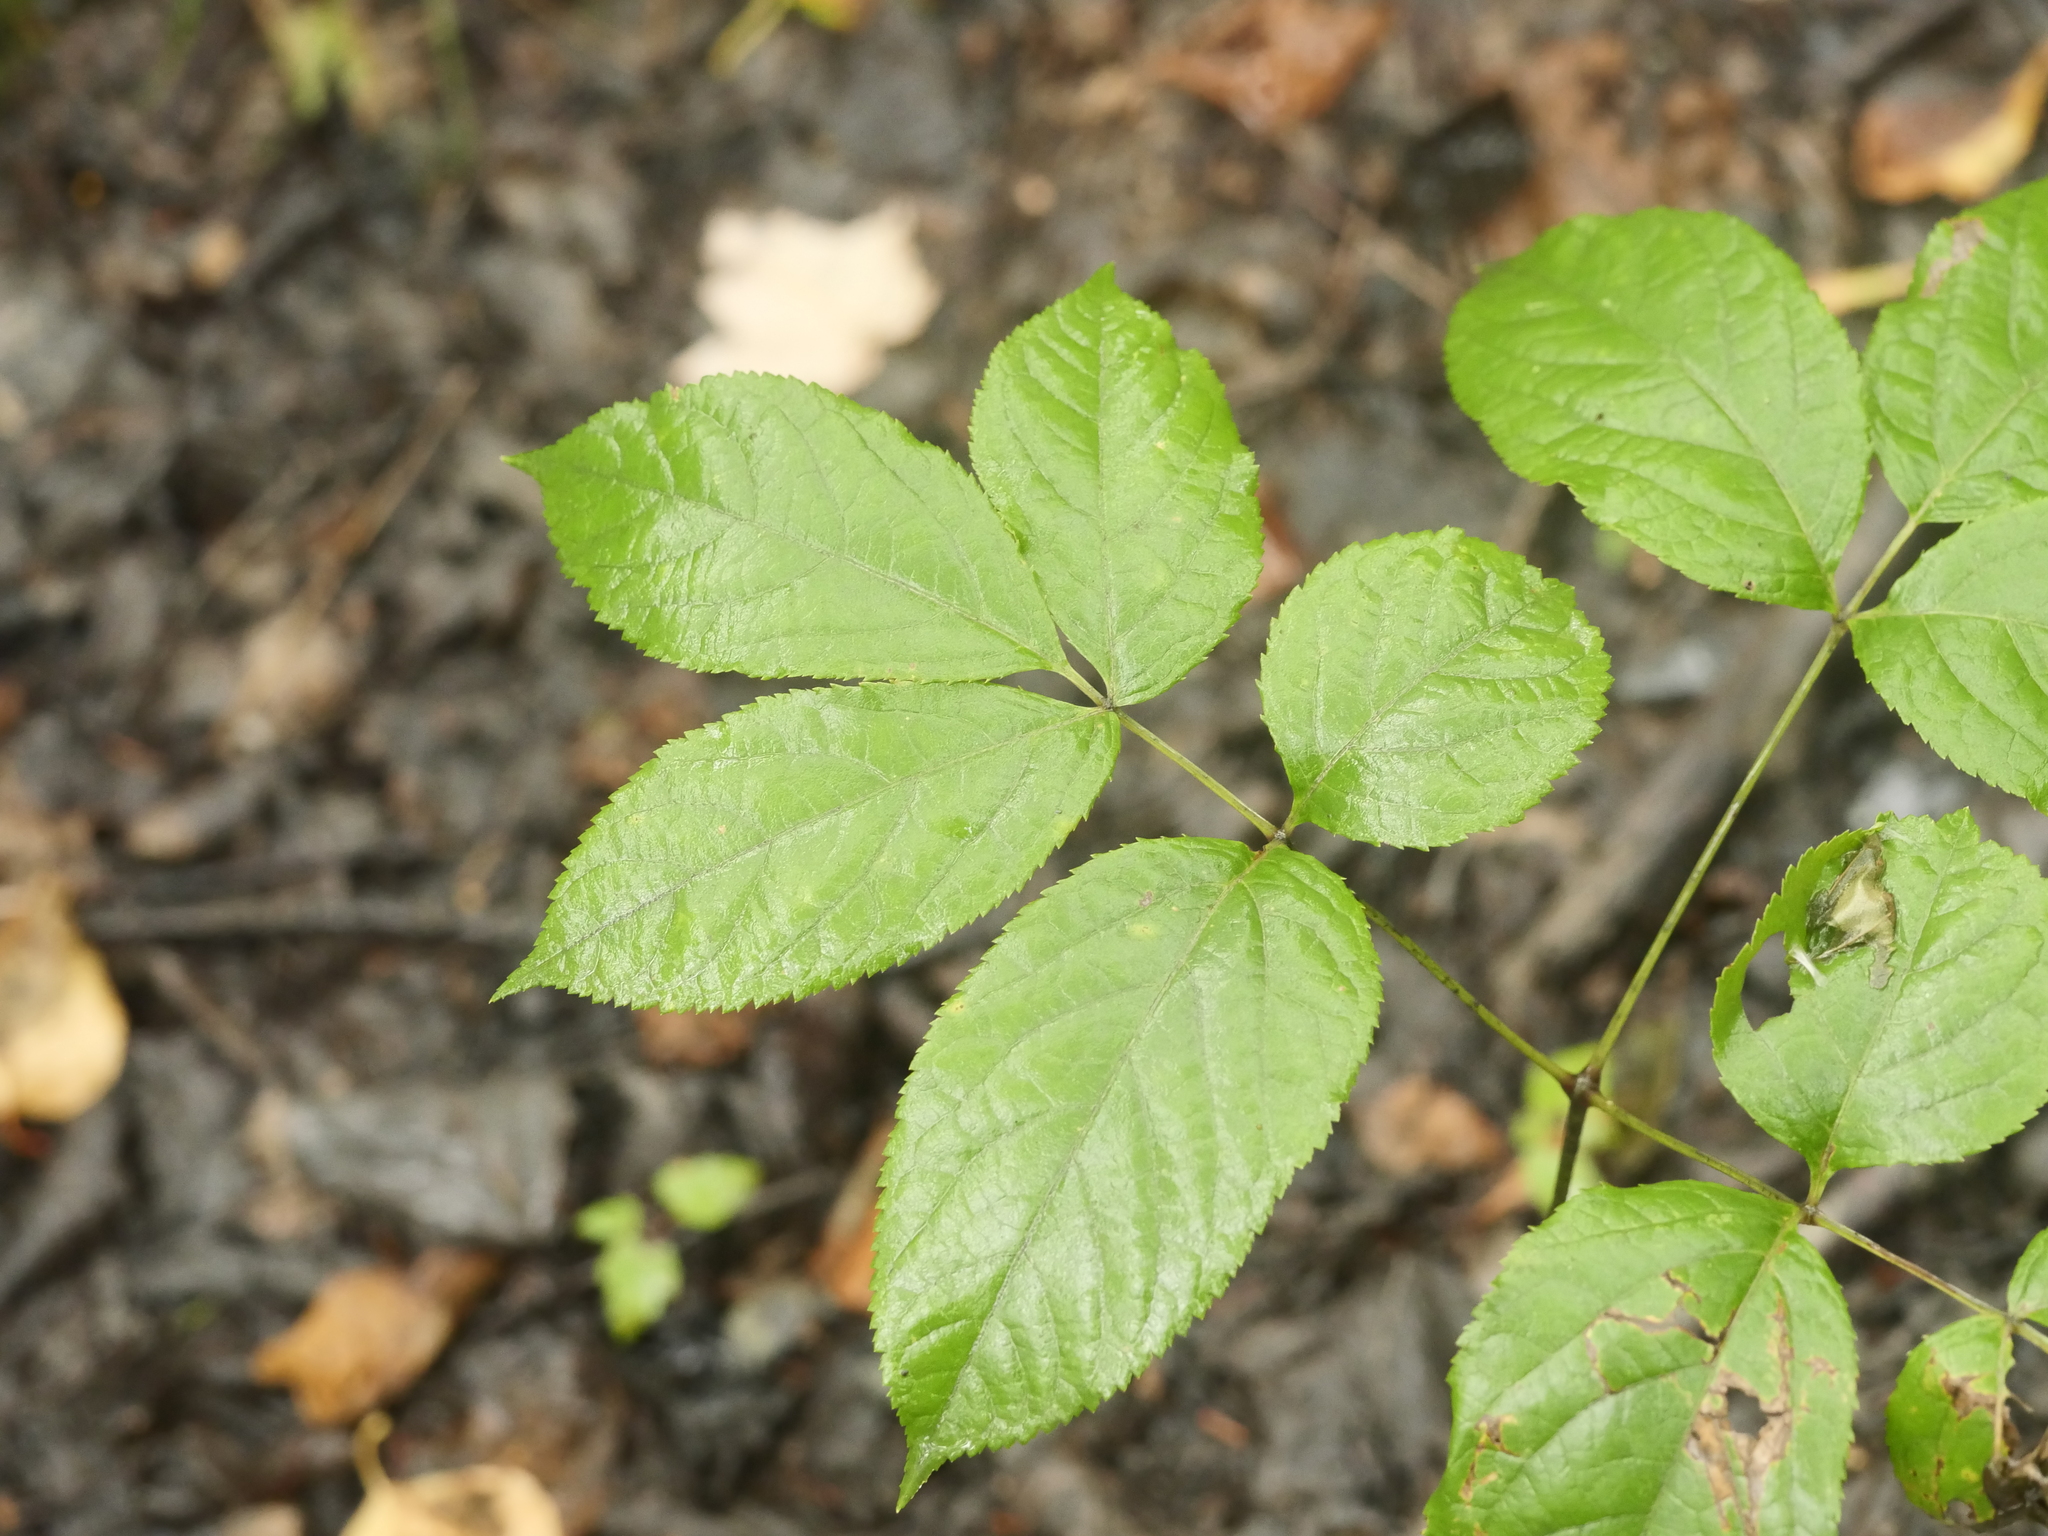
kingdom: Plantae
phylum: Tracheophyta
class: Magnoliopsida
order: Apiales
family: Araliaceae
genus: Aralia
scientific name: Aralia nudicaulis
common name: Wild sarsaparilla
